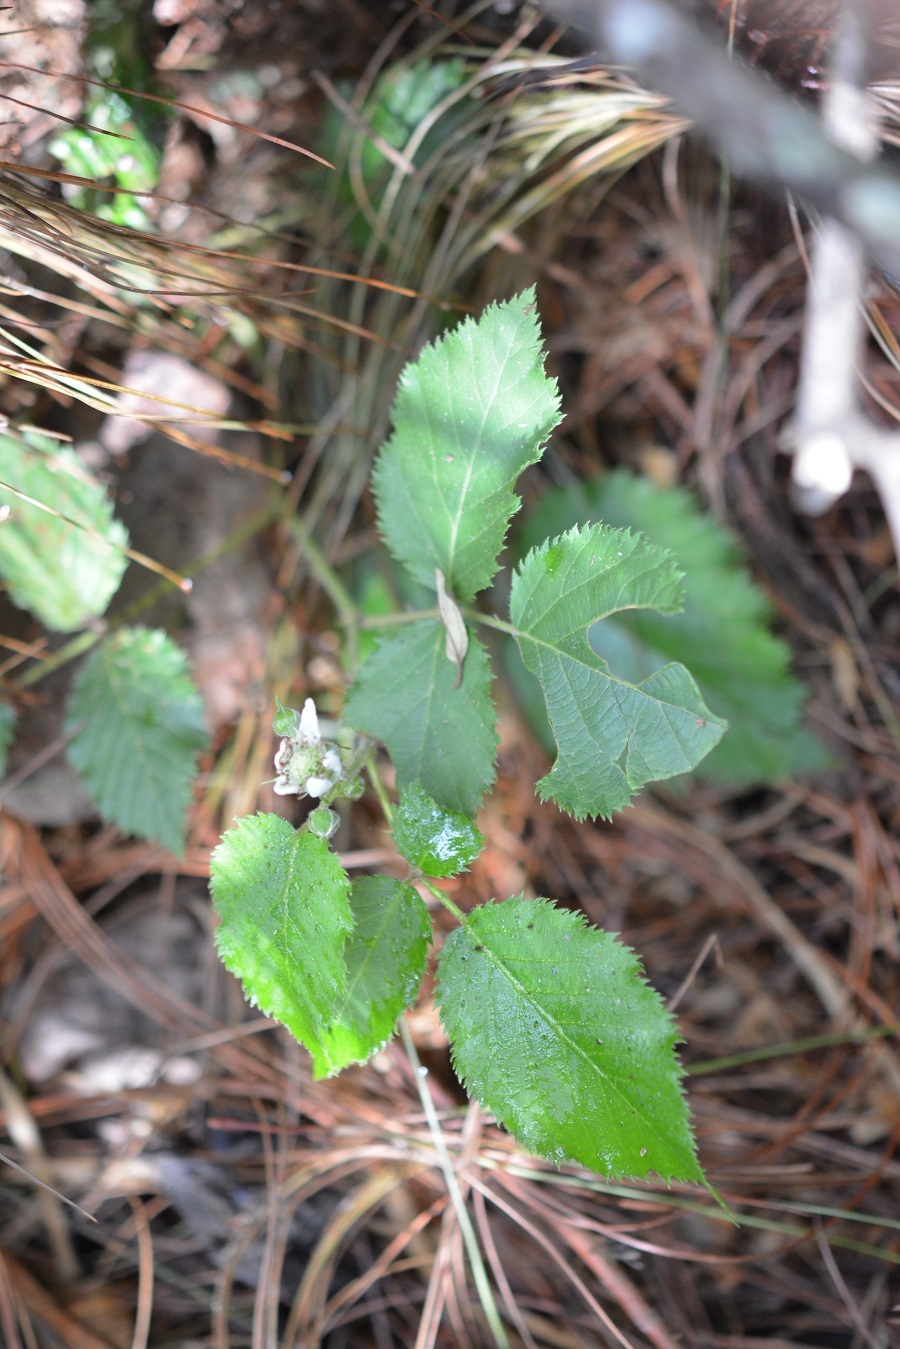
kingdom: Plantae
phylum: Tracheophyta
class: Magnoliopsida
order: Rosales
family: Rosaceae
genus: Rubus
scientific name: Rubus adenotrichos
